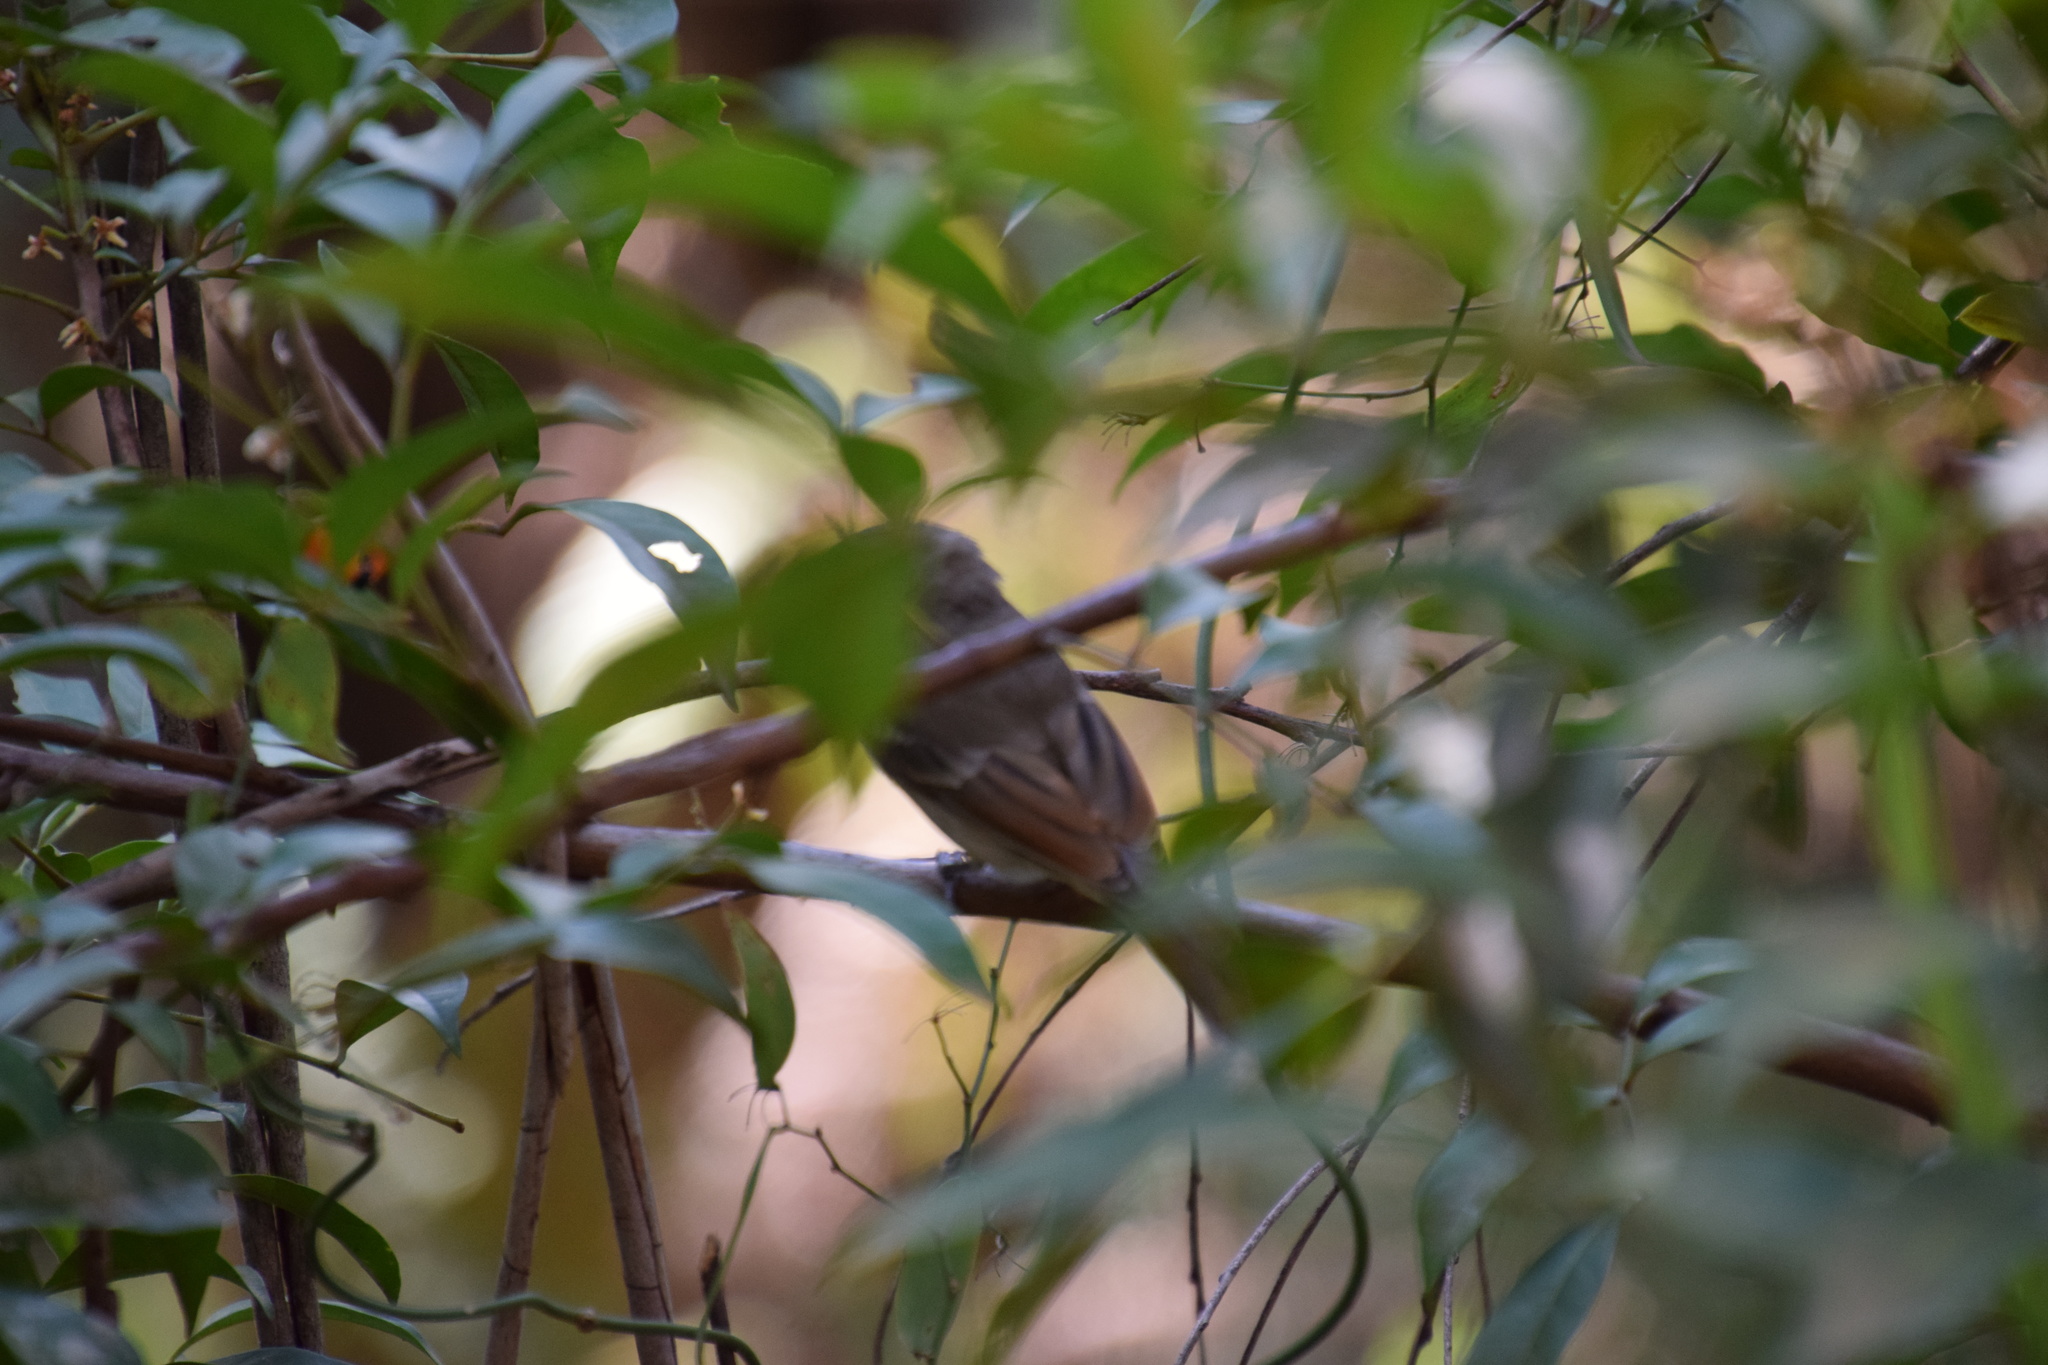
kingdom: Animalia
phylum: Chordata
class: Aves
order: Passeriformes
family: Pachycephalidae
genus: Pachycephala
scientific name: Pachycephala pectoralis
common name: Australian golden whistler
